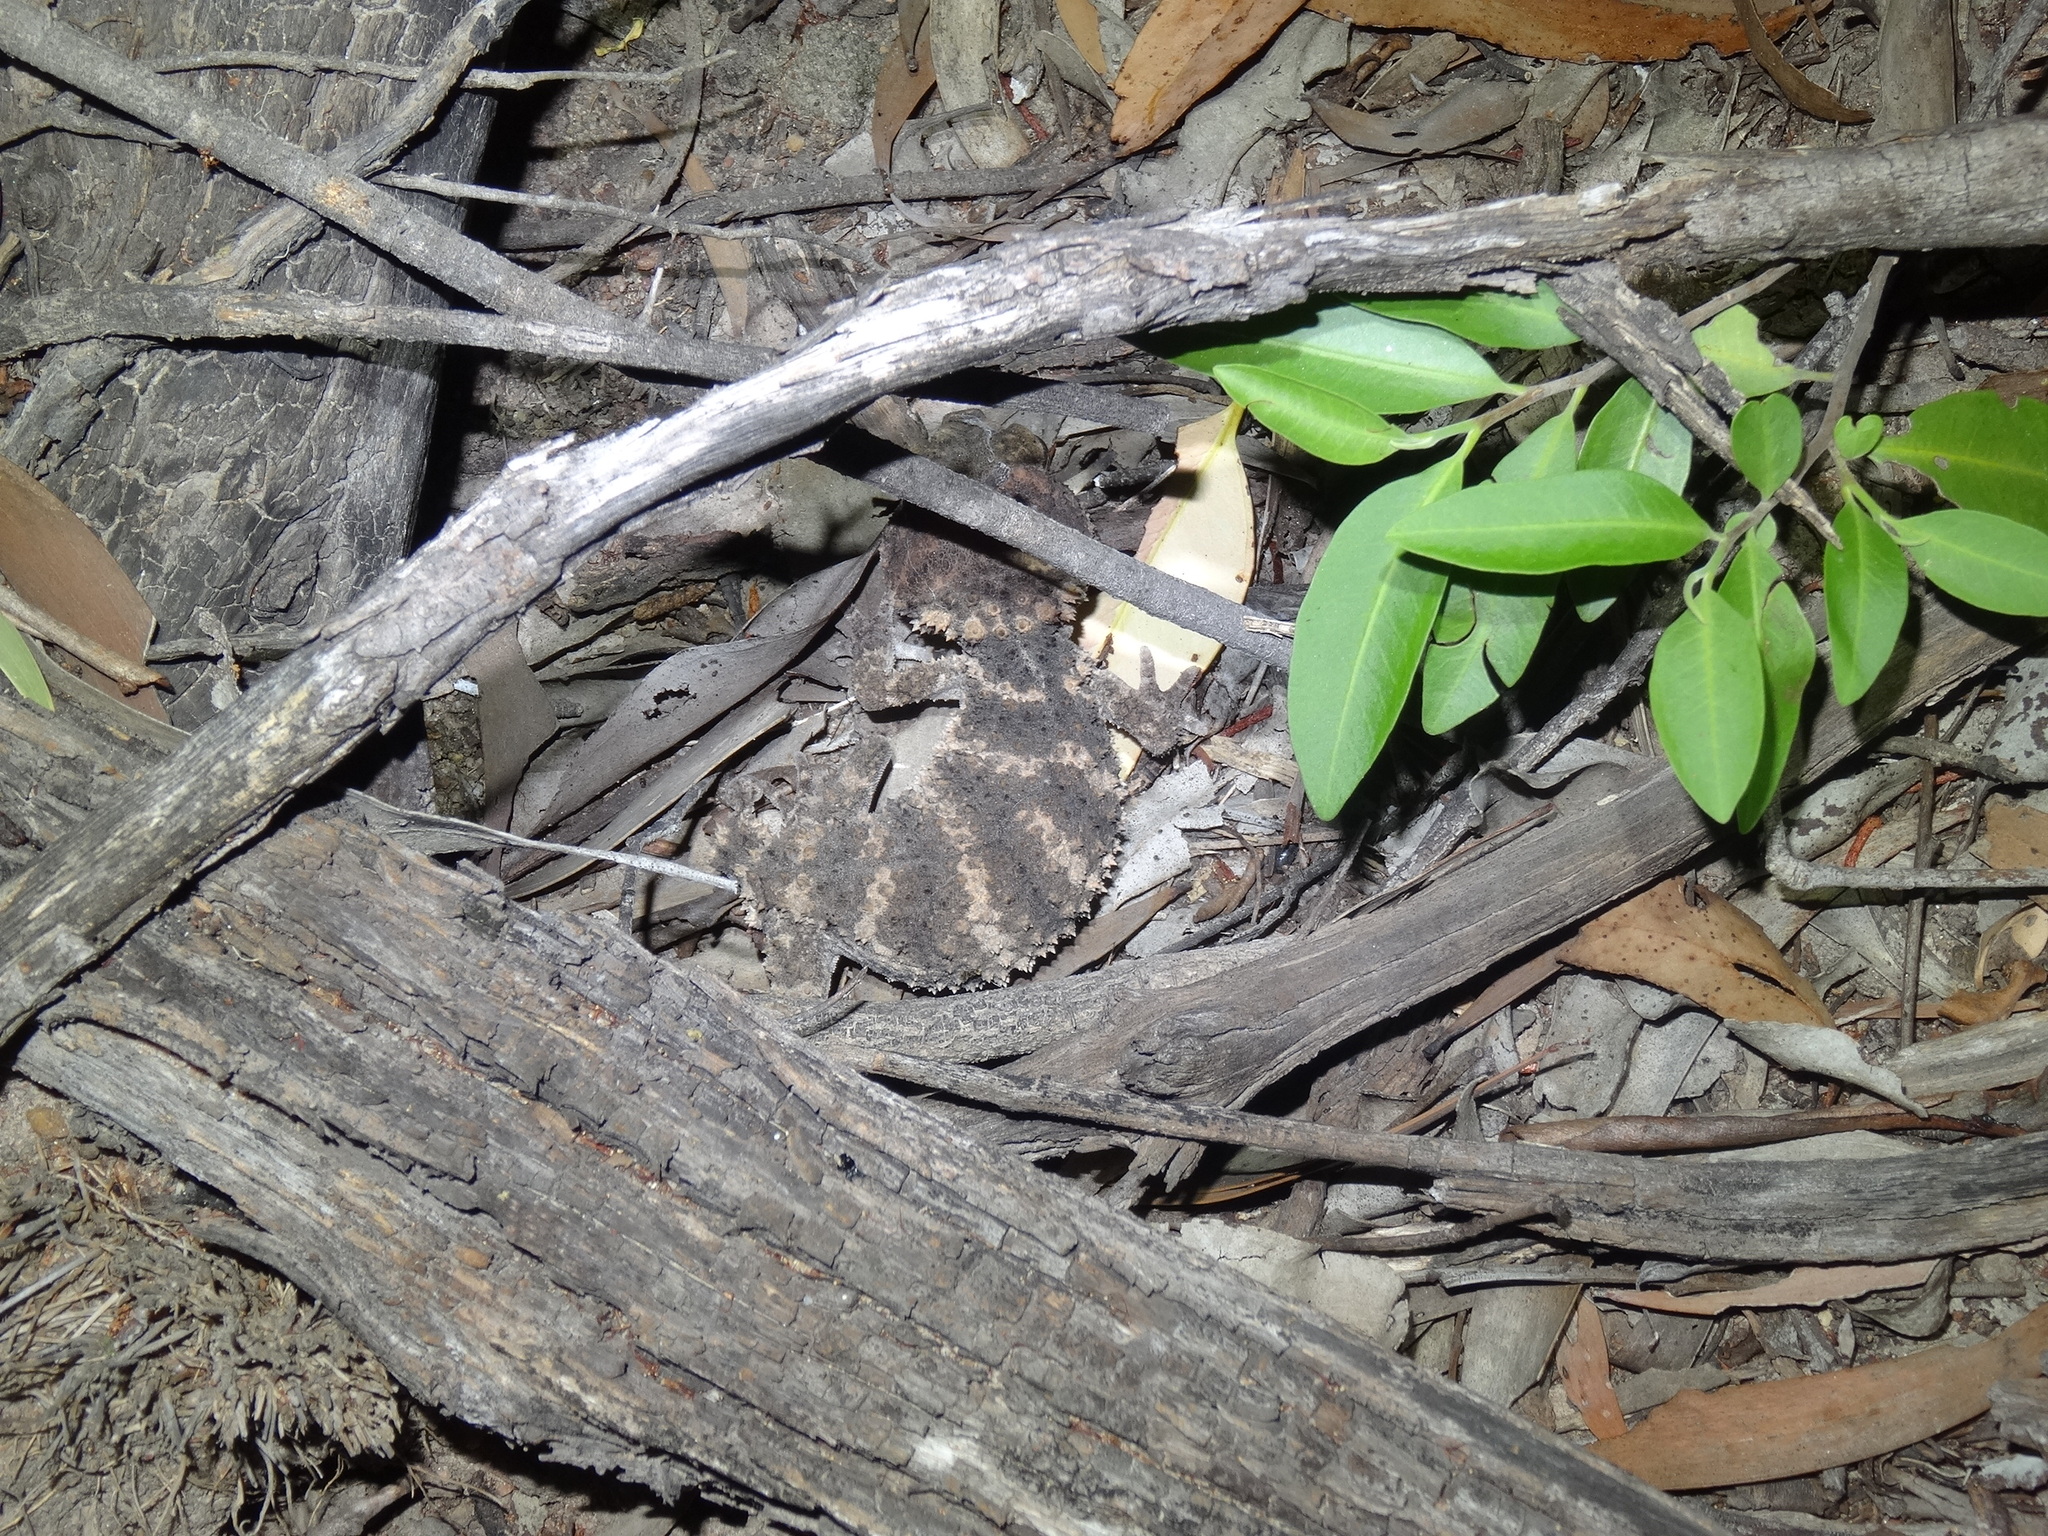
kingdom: Animalia
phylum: Chordata
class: Squamata
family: Carphodactylidae
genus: Nephrurus
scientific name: Nephrurus asper
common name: Rough knob-tail
